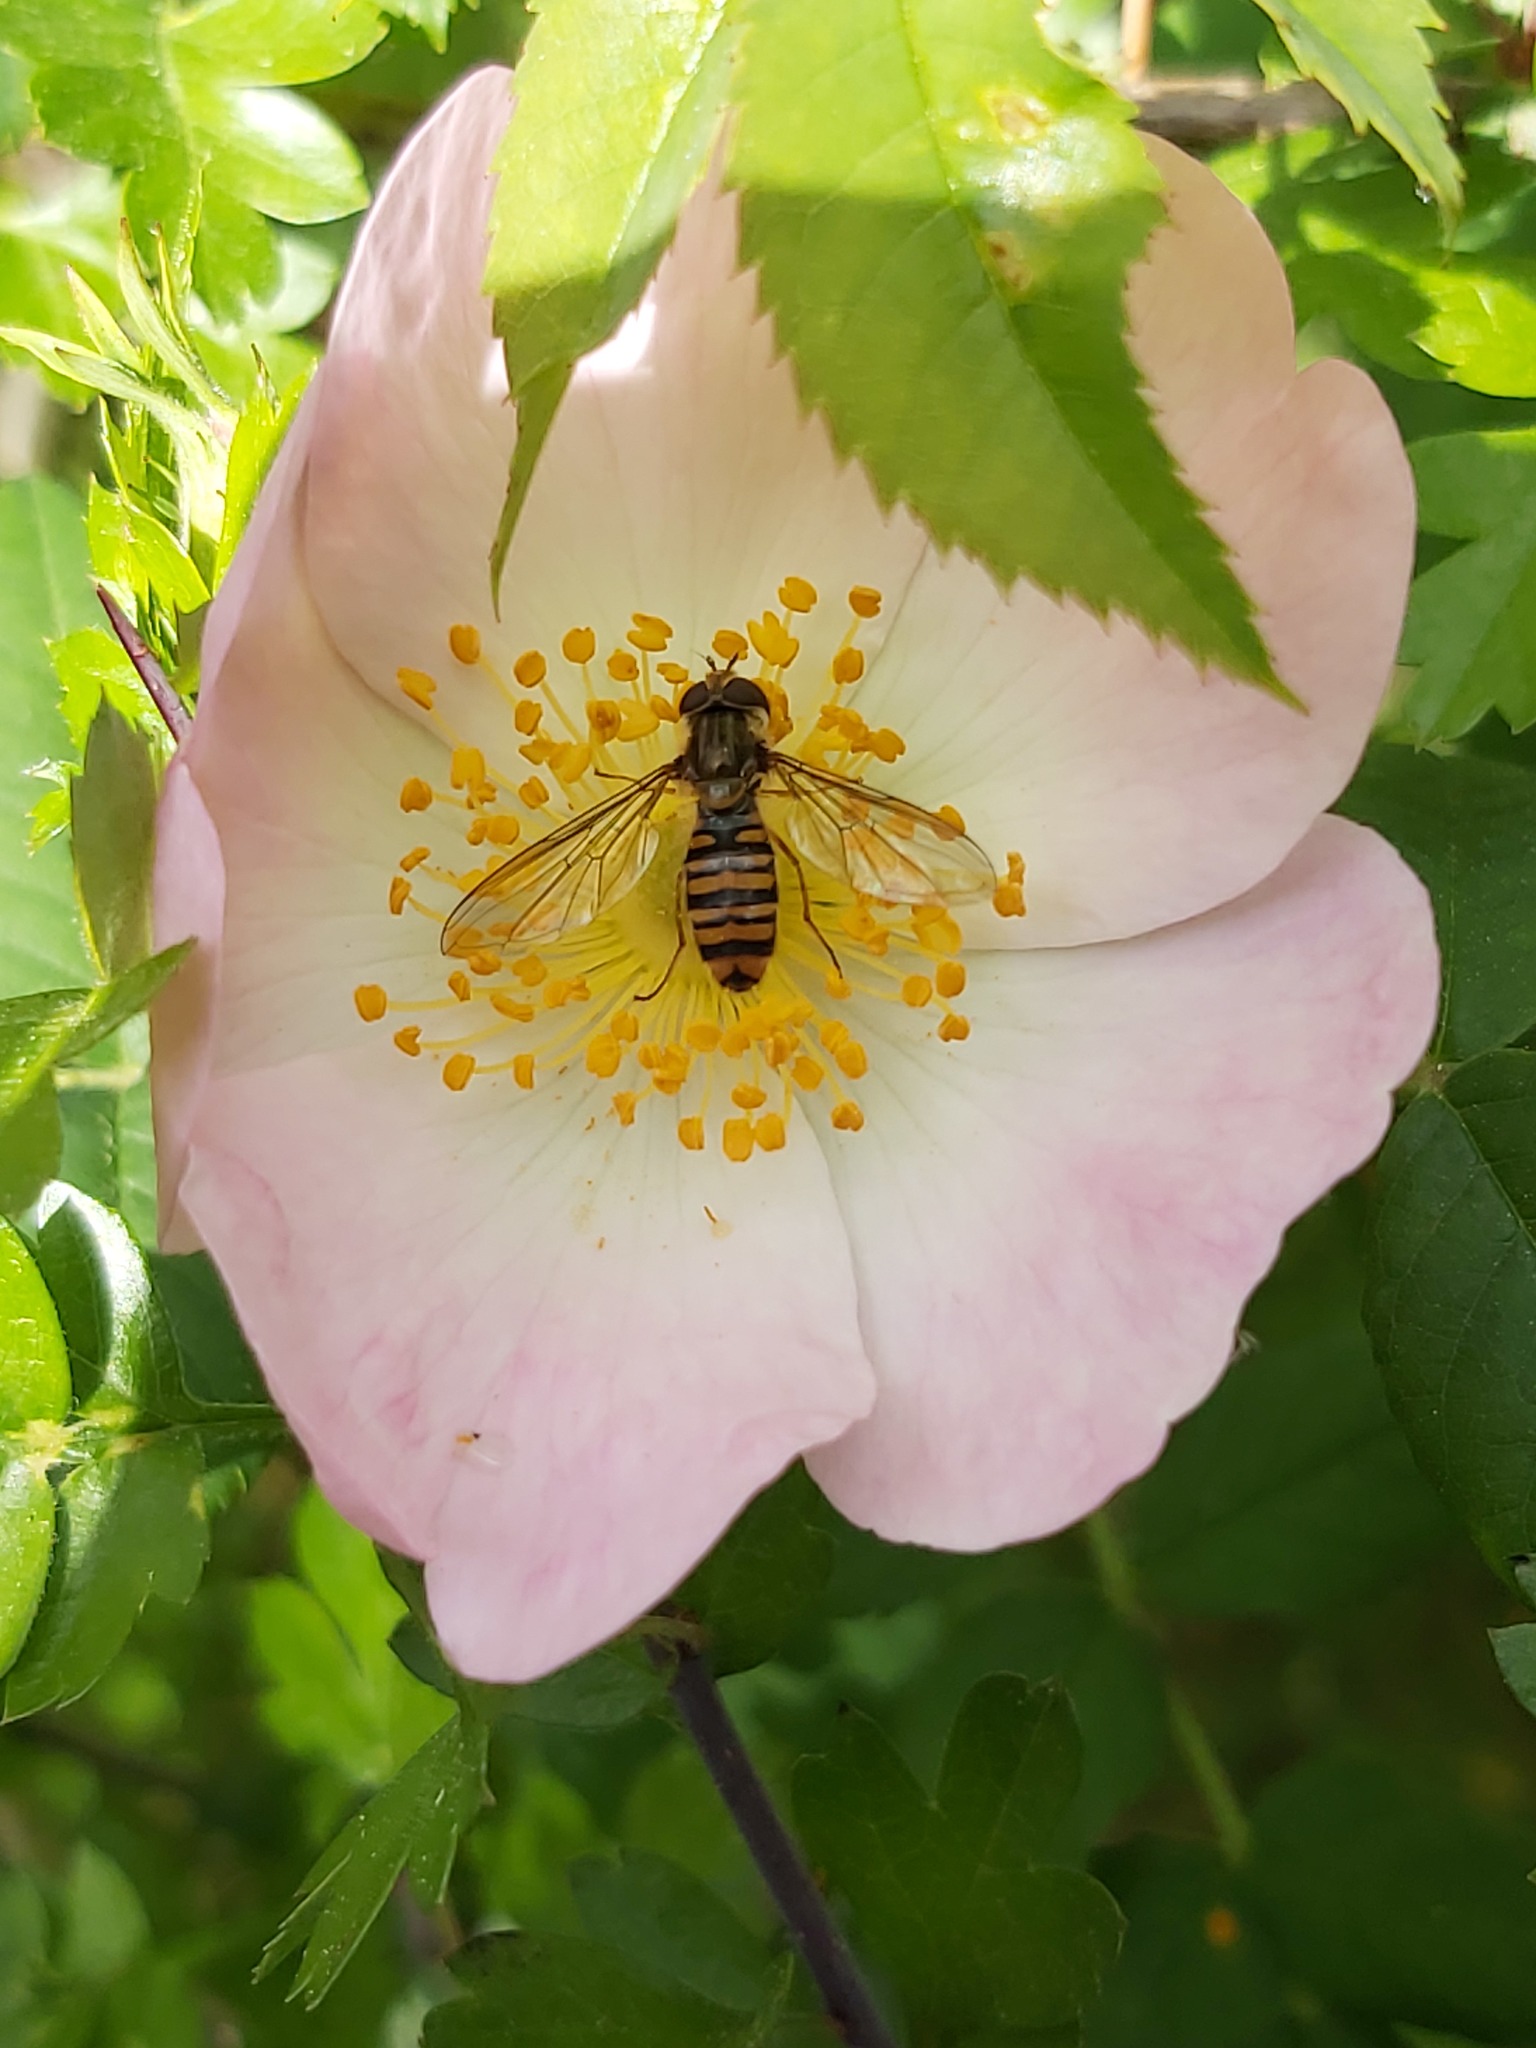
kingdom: Animalia
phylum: Arthropoda
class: Insecta
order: Diptera
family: Syrphidae
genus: Episyrphus
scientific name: Episyrphus balteatus
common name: Marmalade hoverfly
